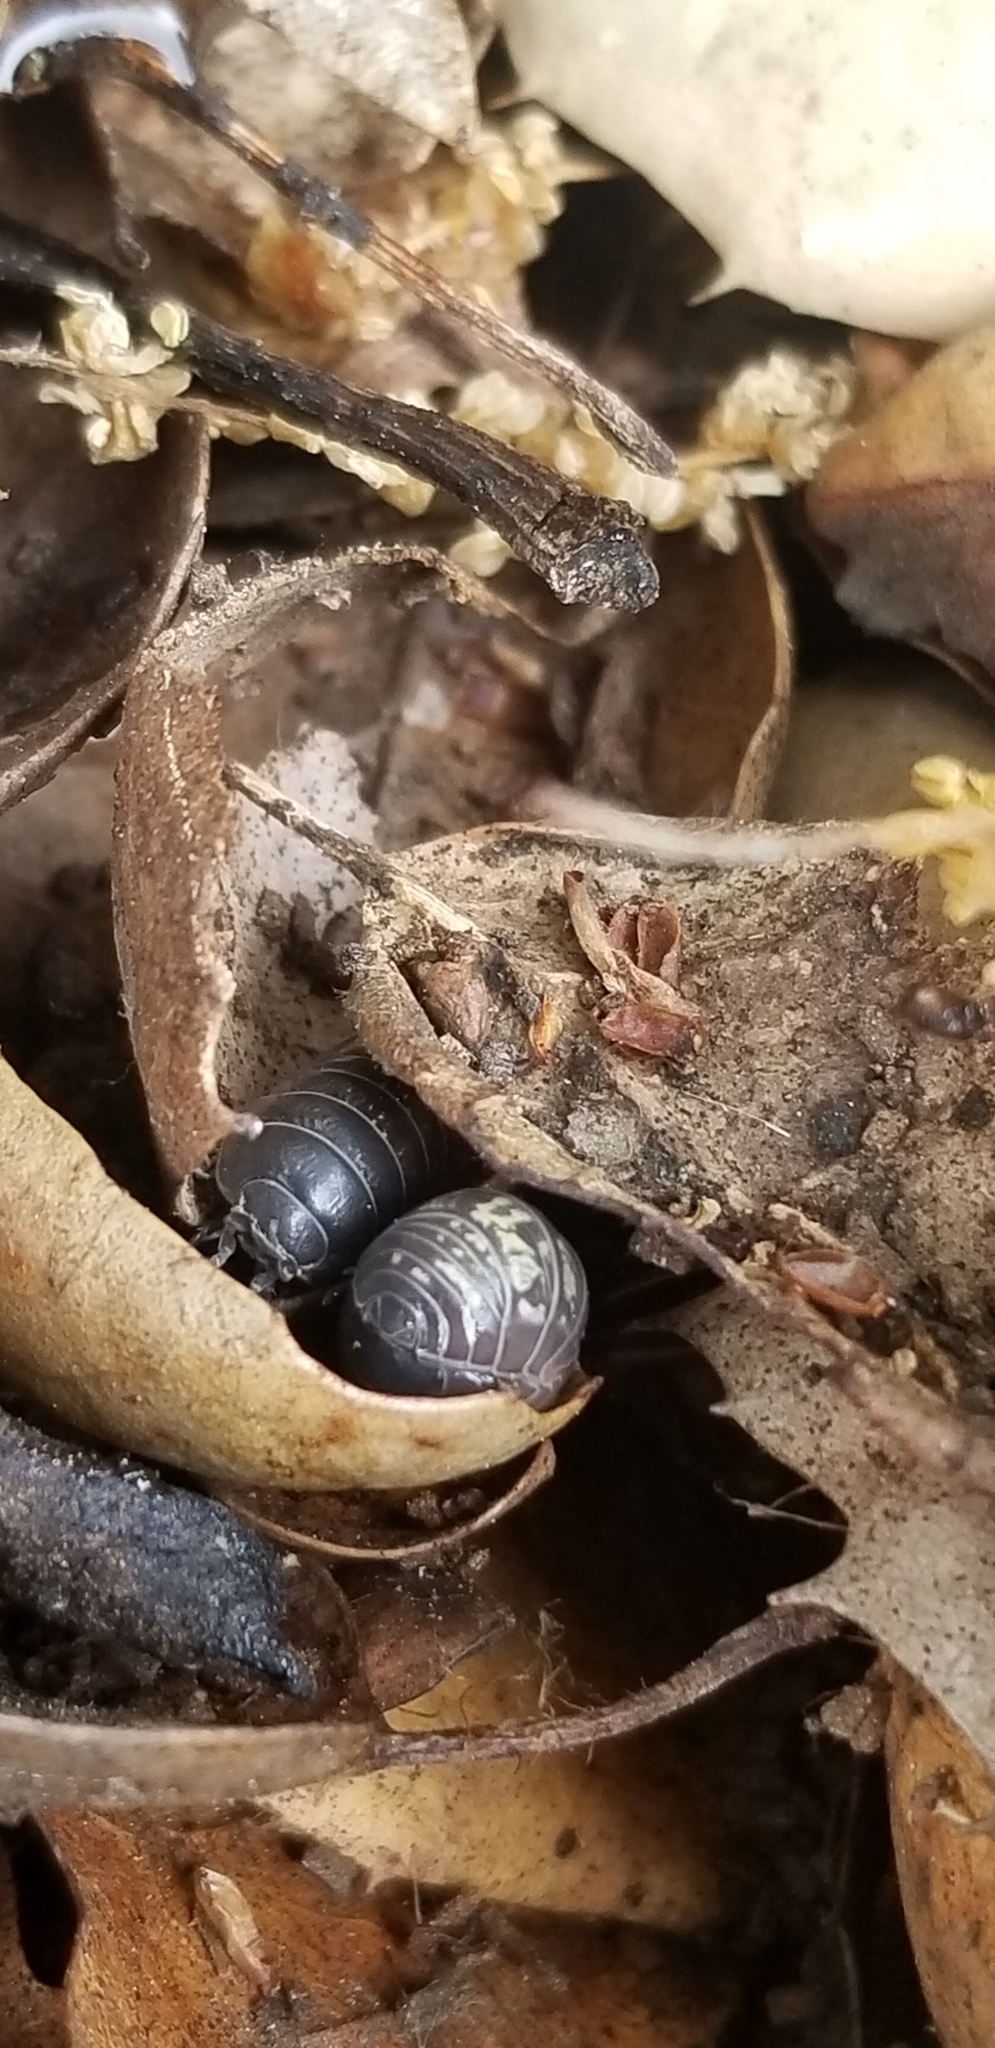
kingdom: Animalia
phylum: Arthropoda
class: Malacostraca
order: Isopoda
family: Armadillidiidae
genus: Armadillidium
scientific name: Armadillidium vulgare
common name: Common pill woodlouse
